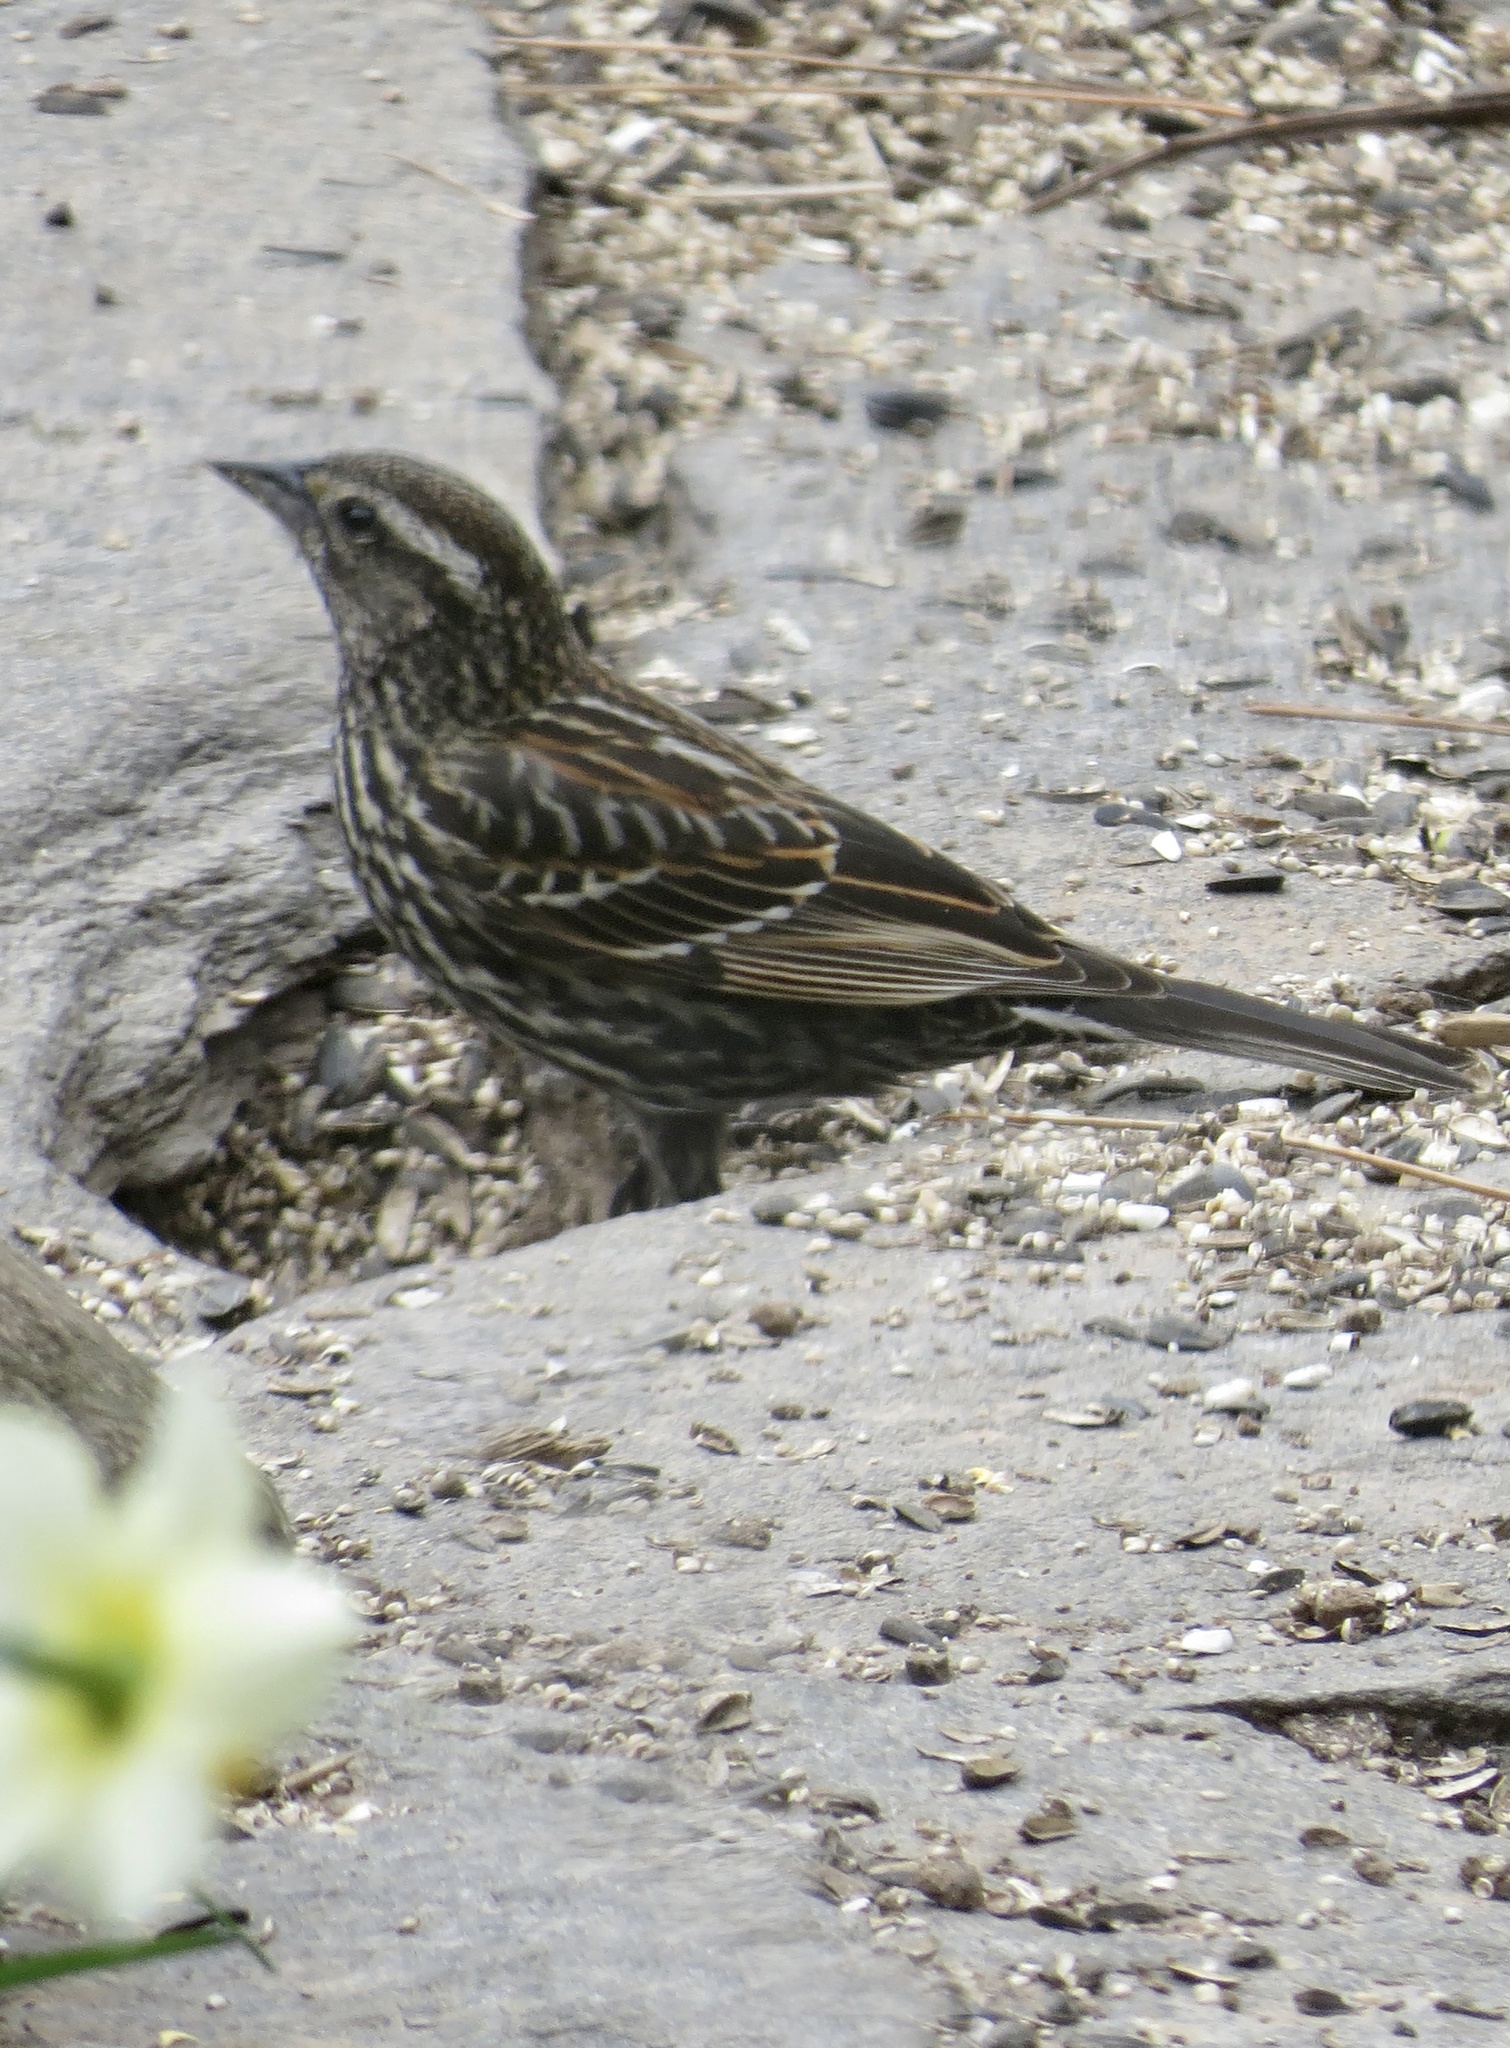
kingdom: Animalia
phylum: Chordata
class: Aves
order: Passeriformes
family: Icteridae
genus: Agelaius
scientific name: Agelaius phoeniceus
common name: Red-winged blackbird
